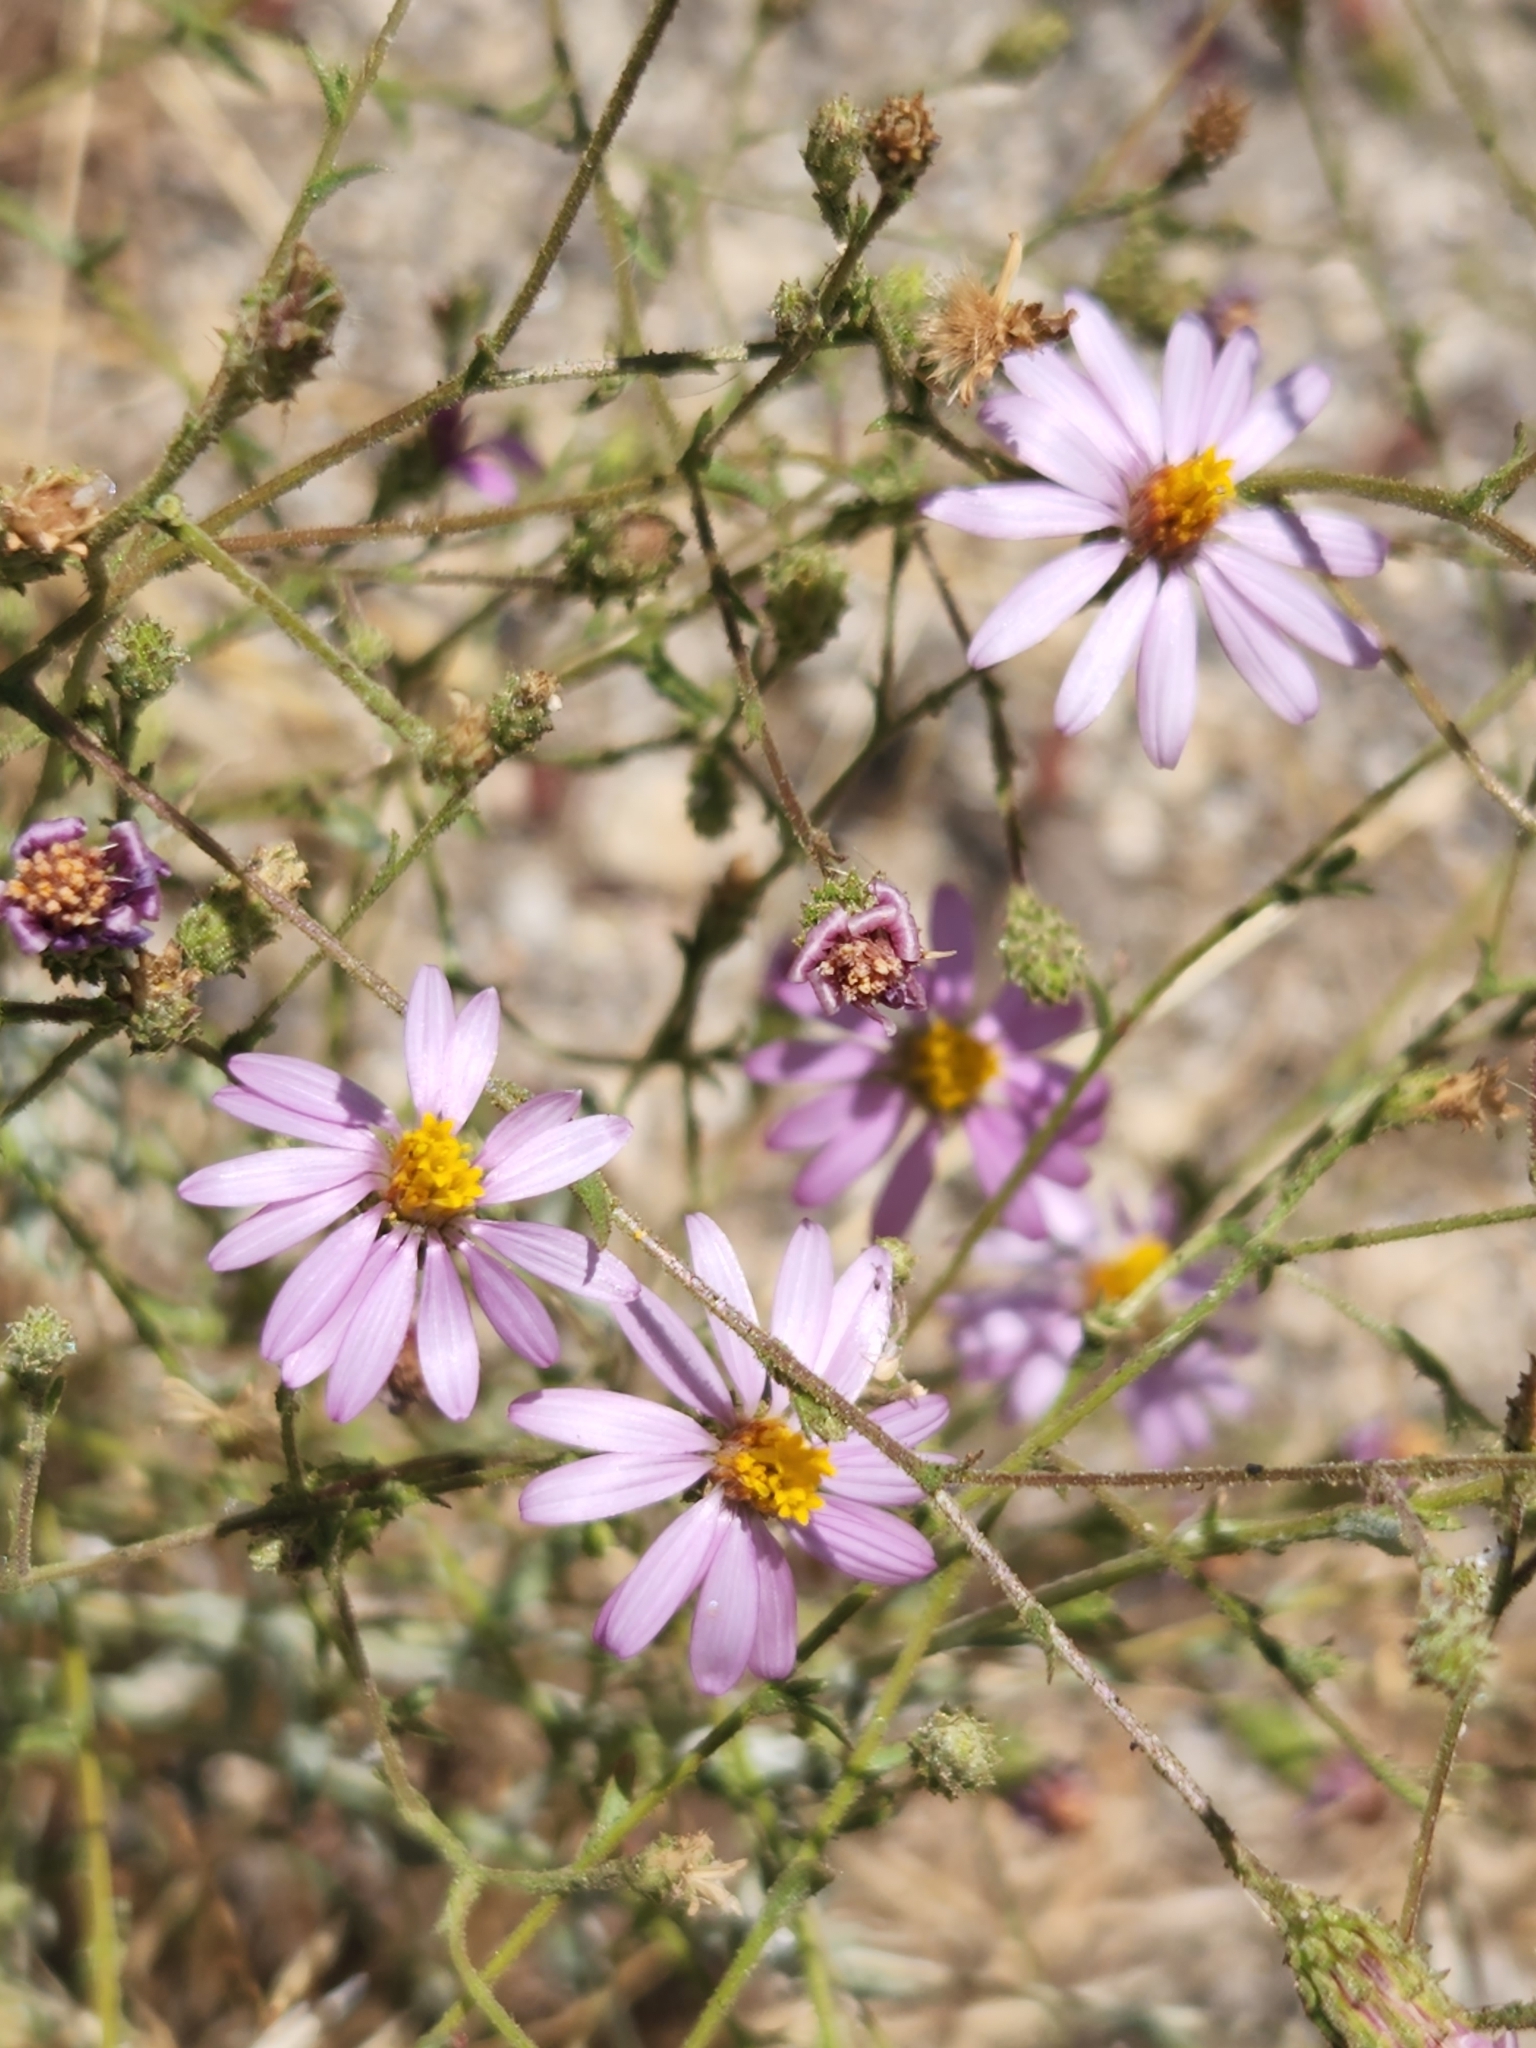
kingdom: Plantae
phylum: Tracheophyta
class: Magnoliopsida
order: Asterales
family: Asteraceae
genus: Corethrogyne
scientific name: Corethrogyne filaginifolia
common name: Sand-aster
